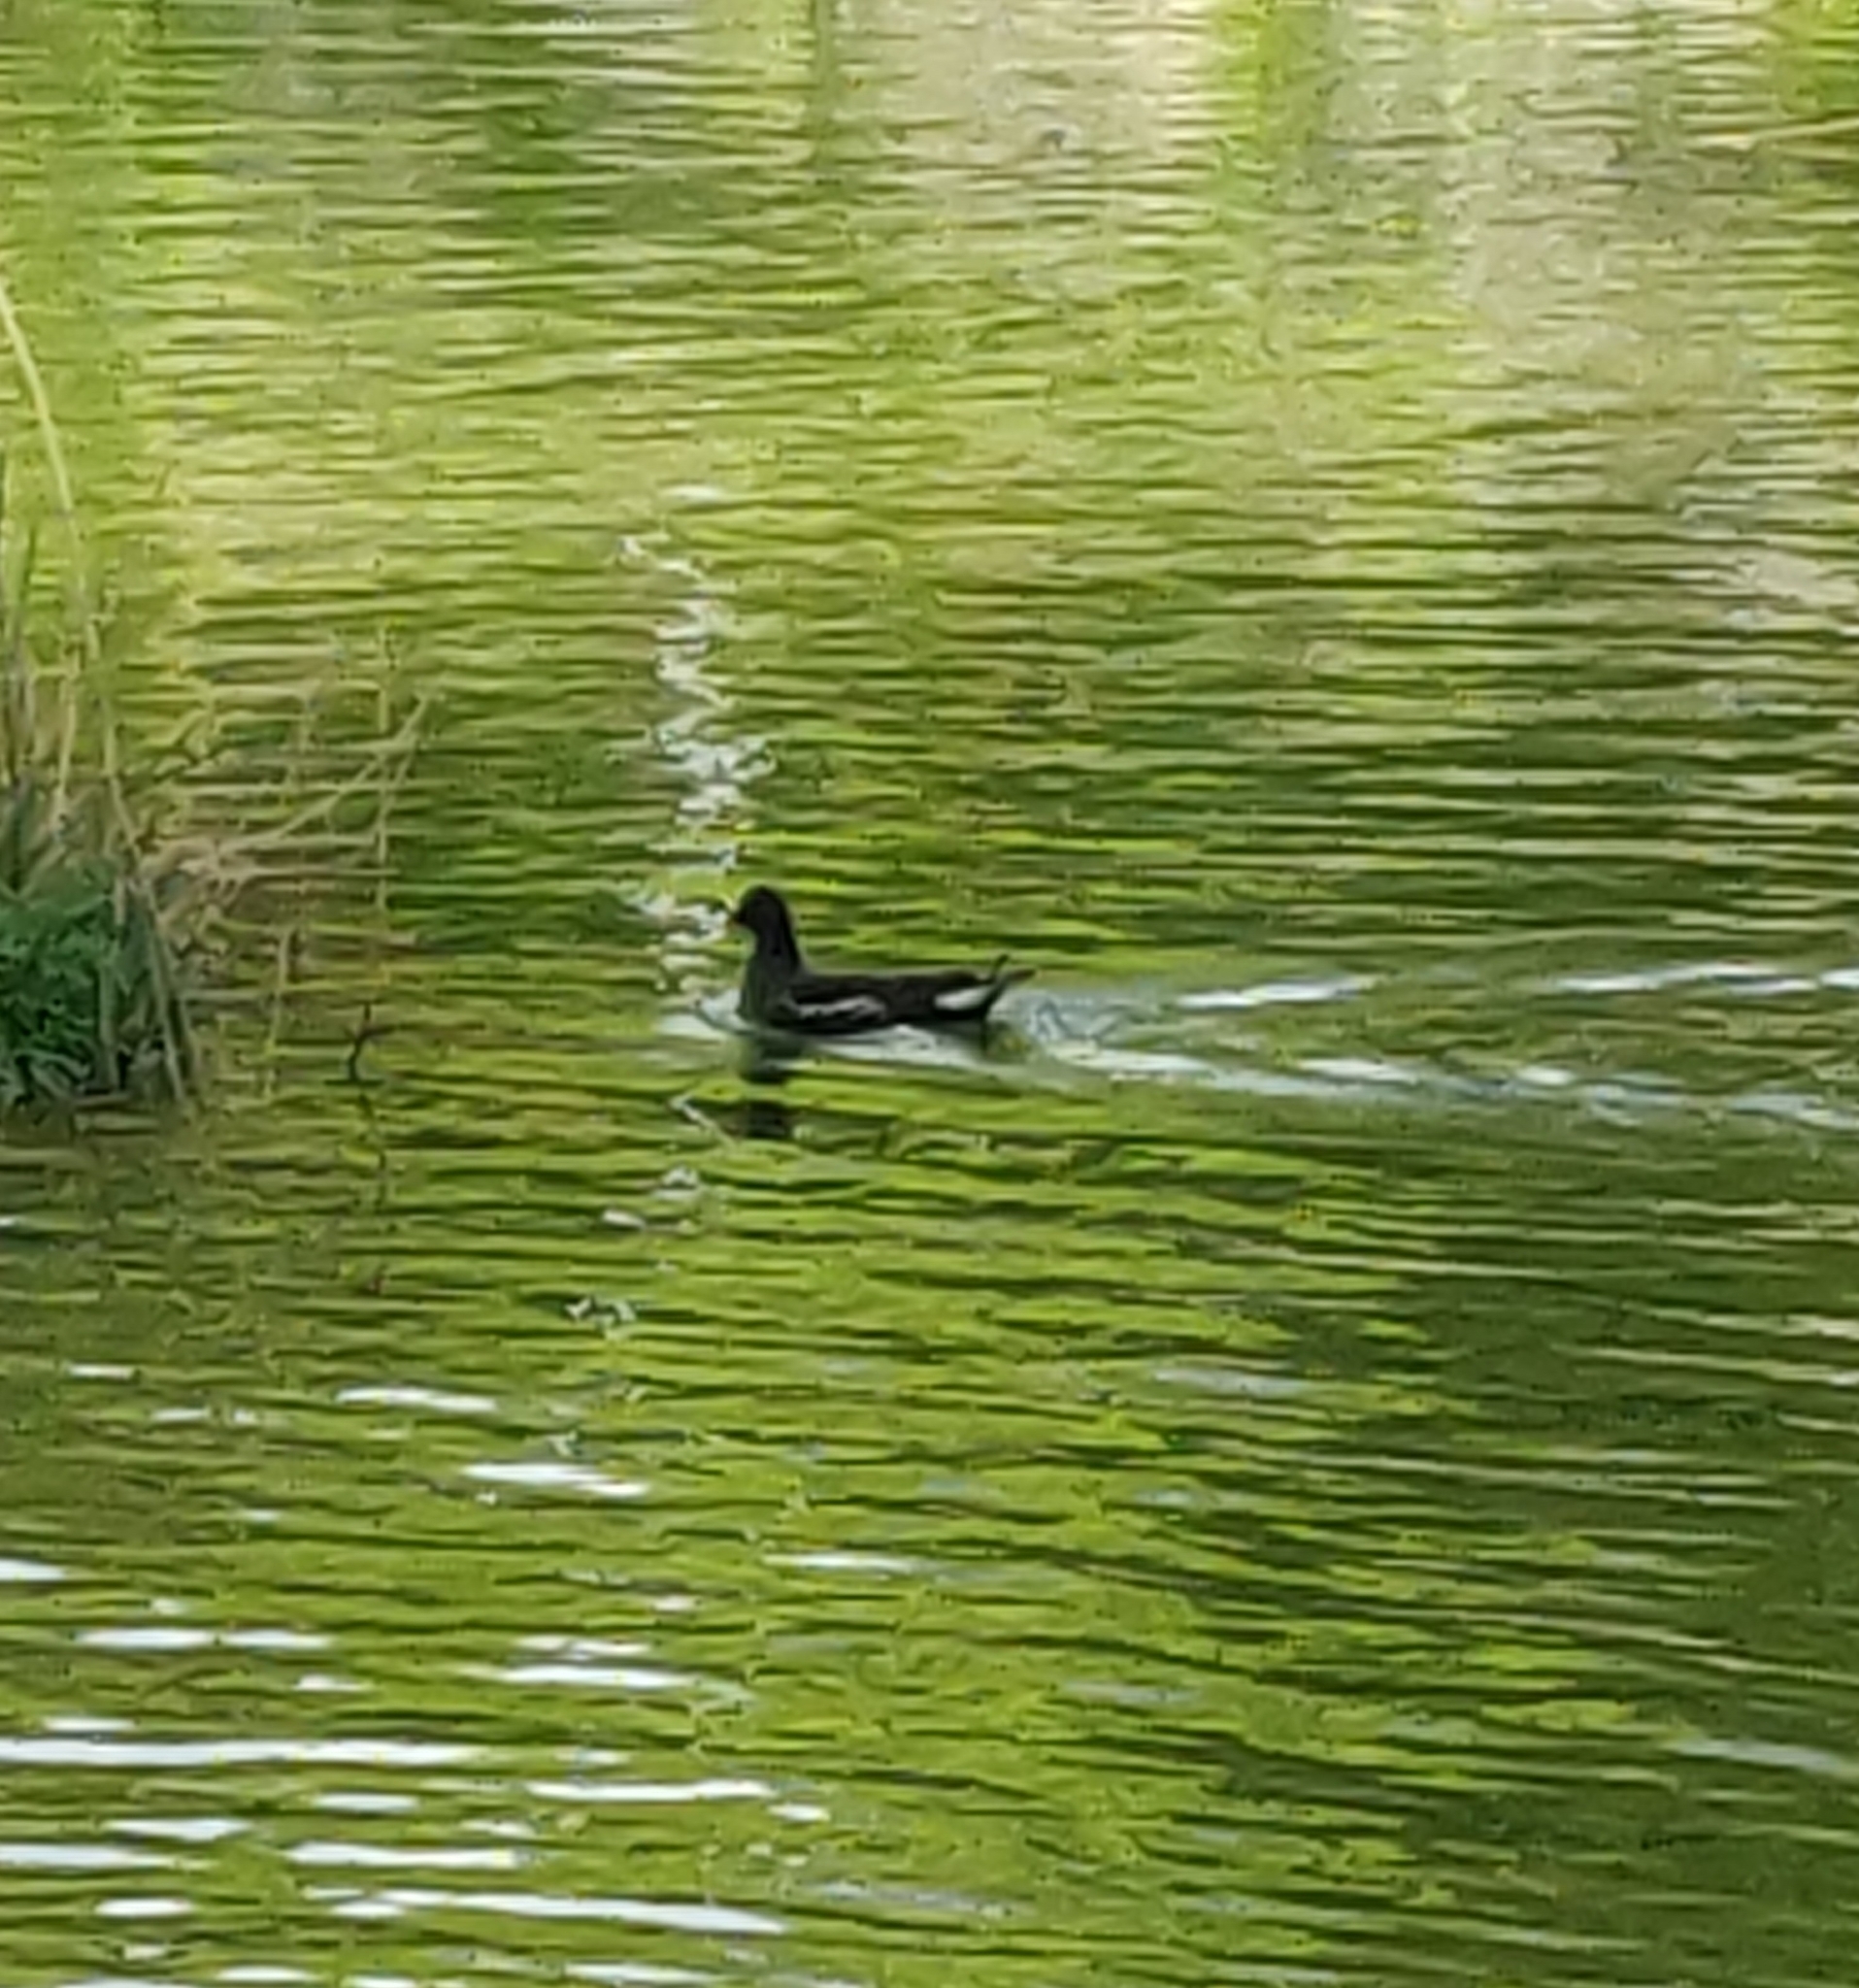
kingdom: Animalia
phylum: Chordata
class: Aves
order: Gruiformes
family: Rallidae
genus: Gallinula
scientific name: Gallinula chloropus
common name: Common moorhen
